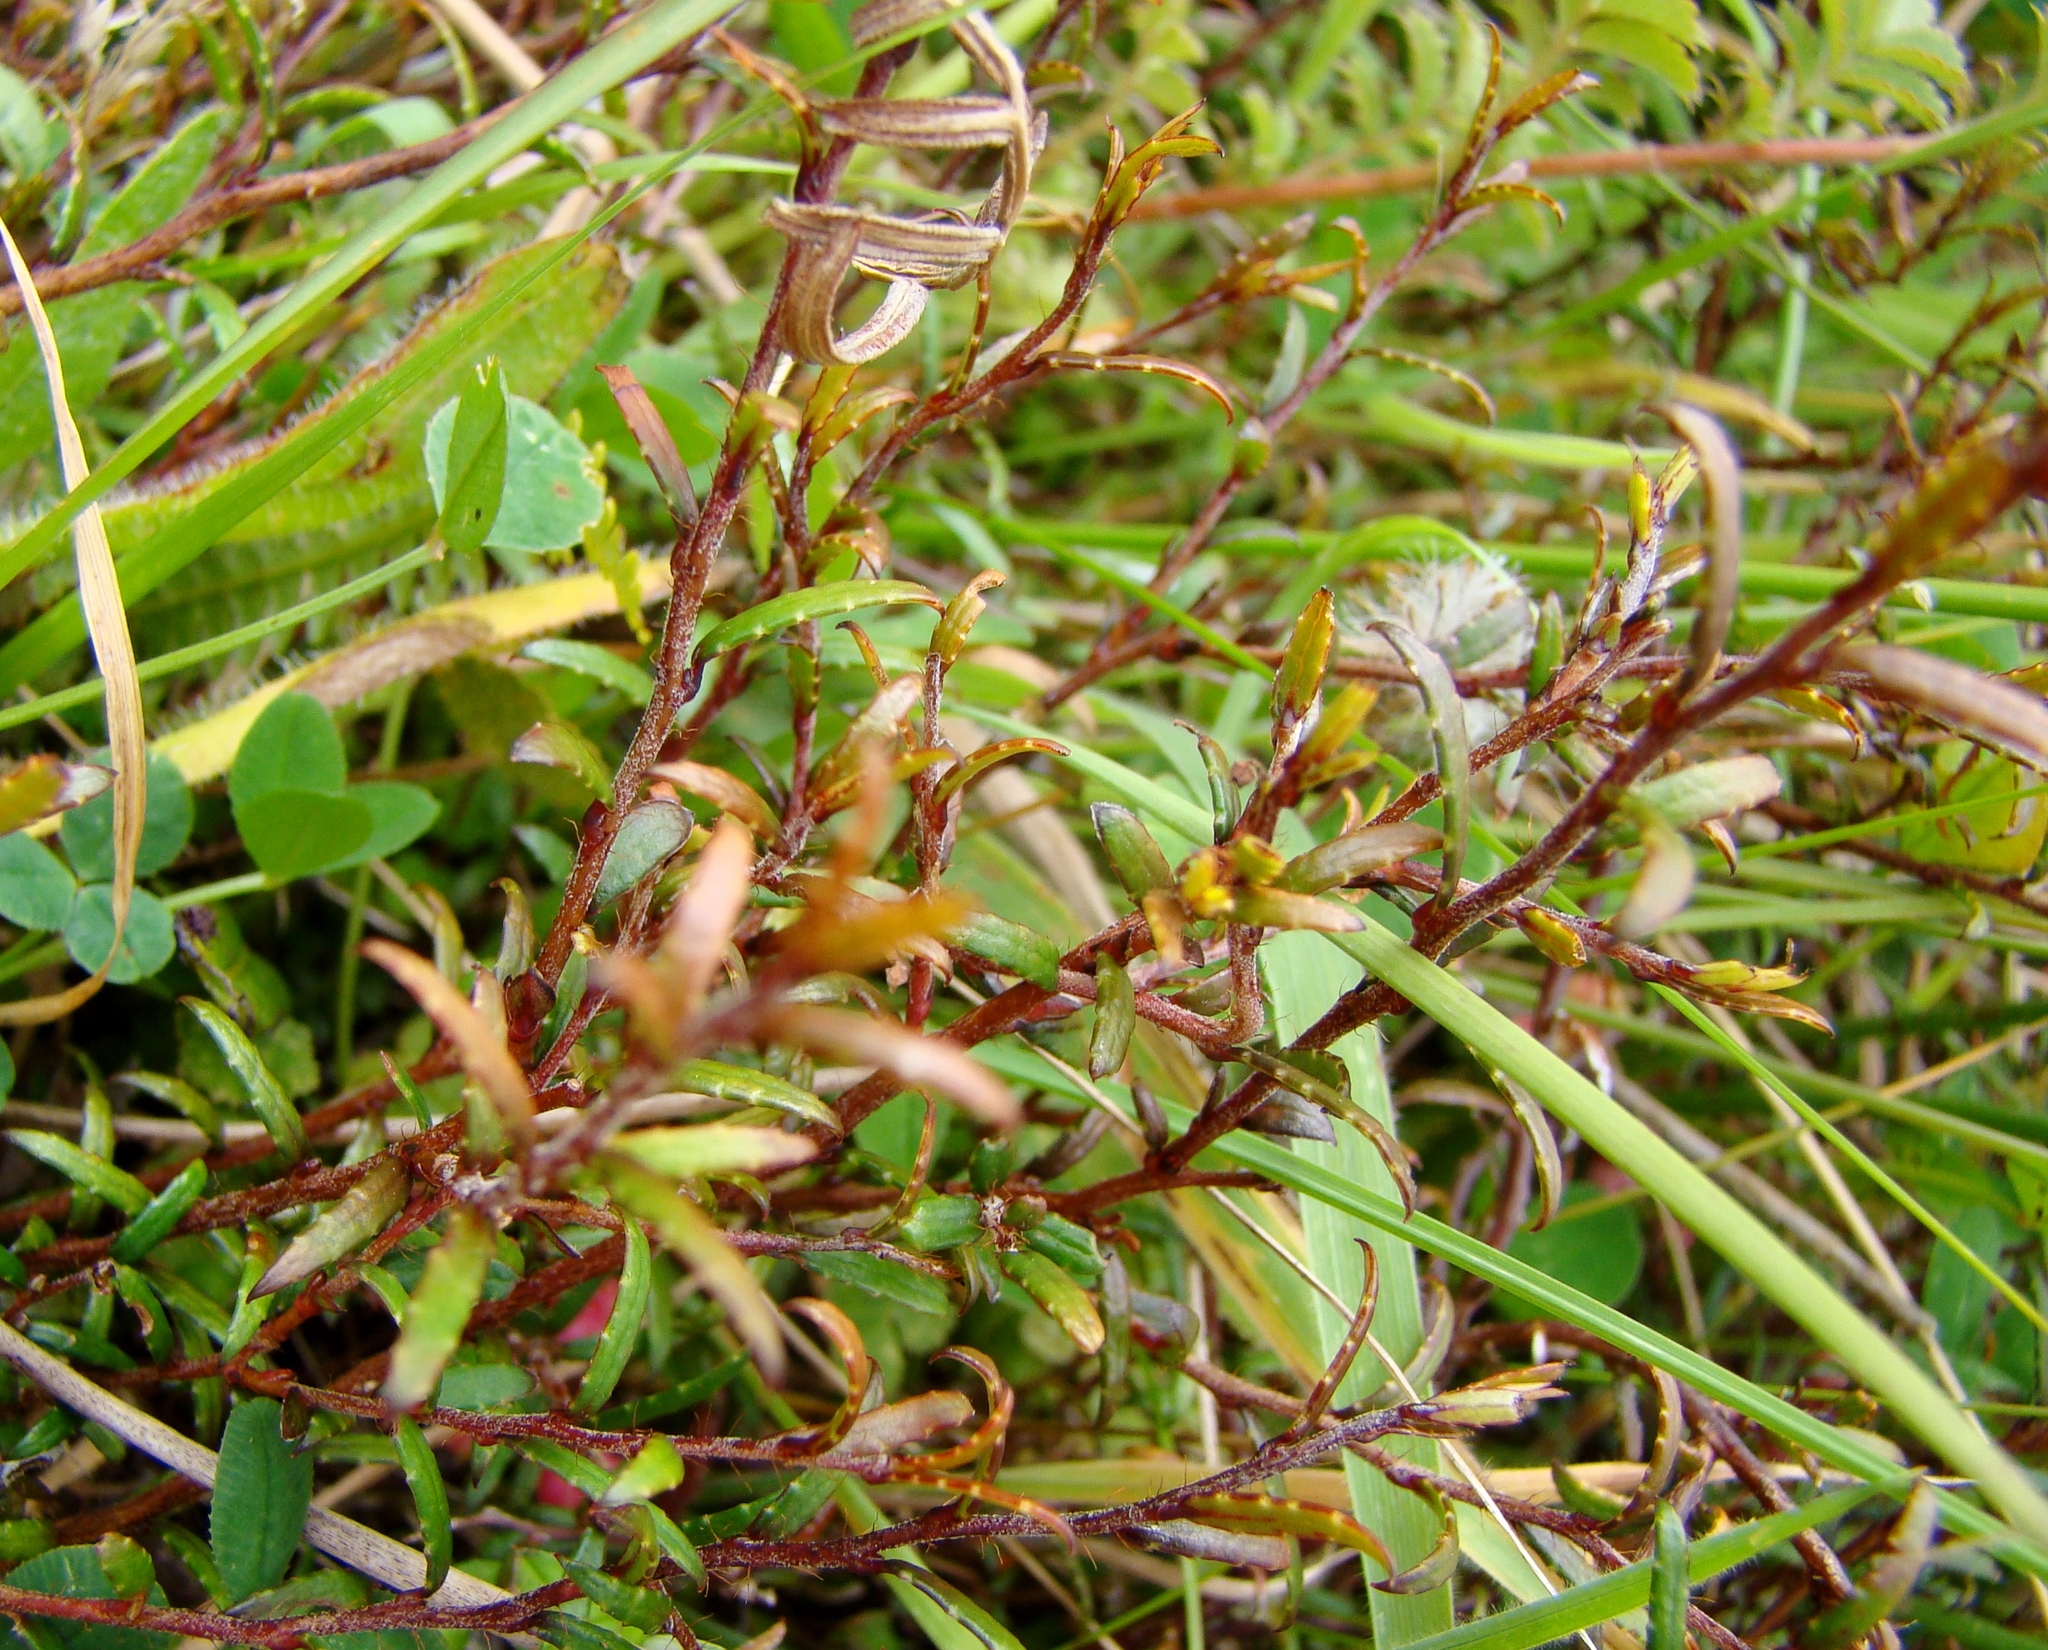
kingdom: Plantae
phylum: Tracheophyta
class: Magnoliopsida
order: Ericales
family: Ericaceae
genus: Gaultheria
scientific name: Gaultheria macrostigma
